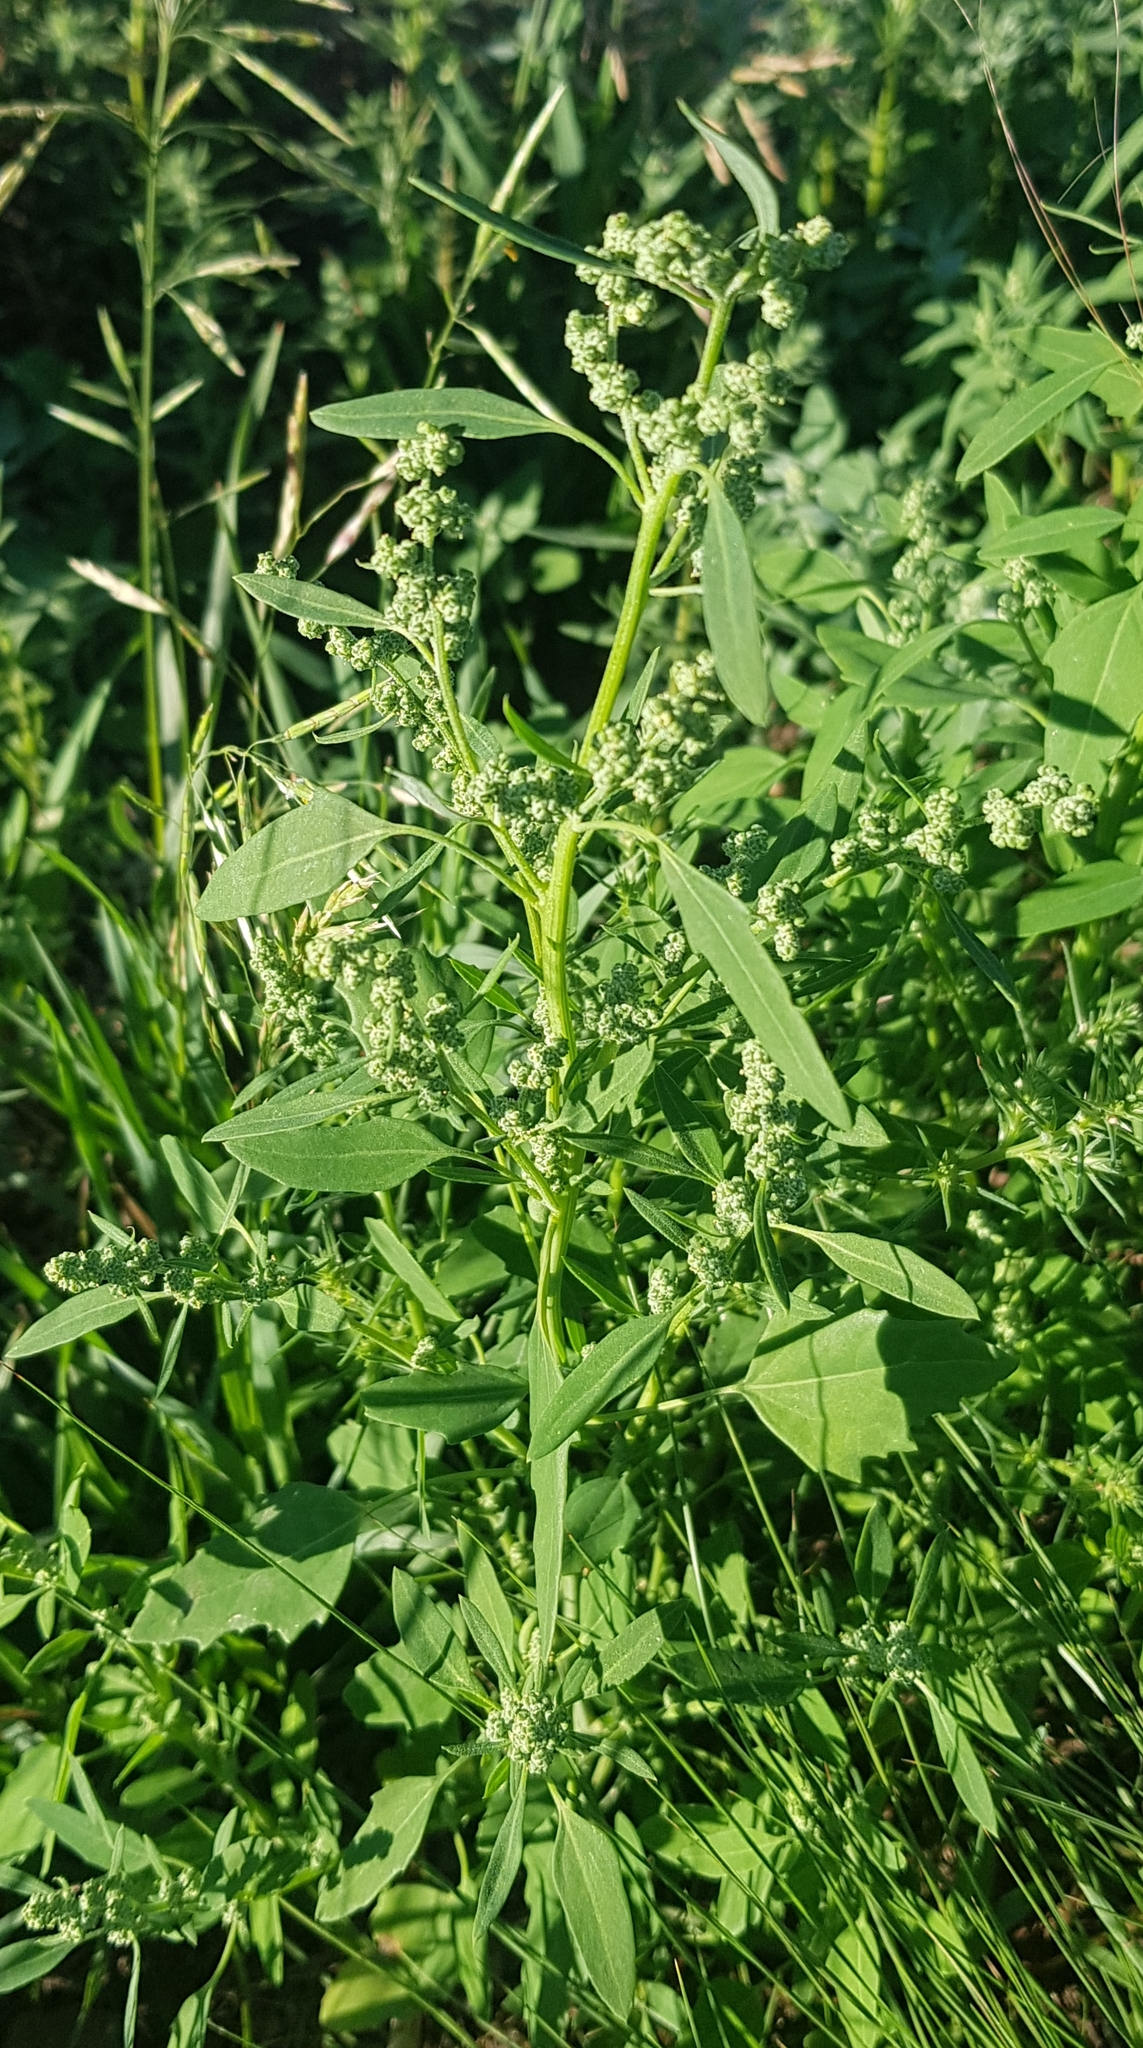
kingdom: Plantae
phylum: Tracheophyta
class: Magnoliopsida
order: Caryophyllales
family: Amaranthaceae
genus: Chenopodium
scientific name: Chenopodium album
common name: Fat-hen
